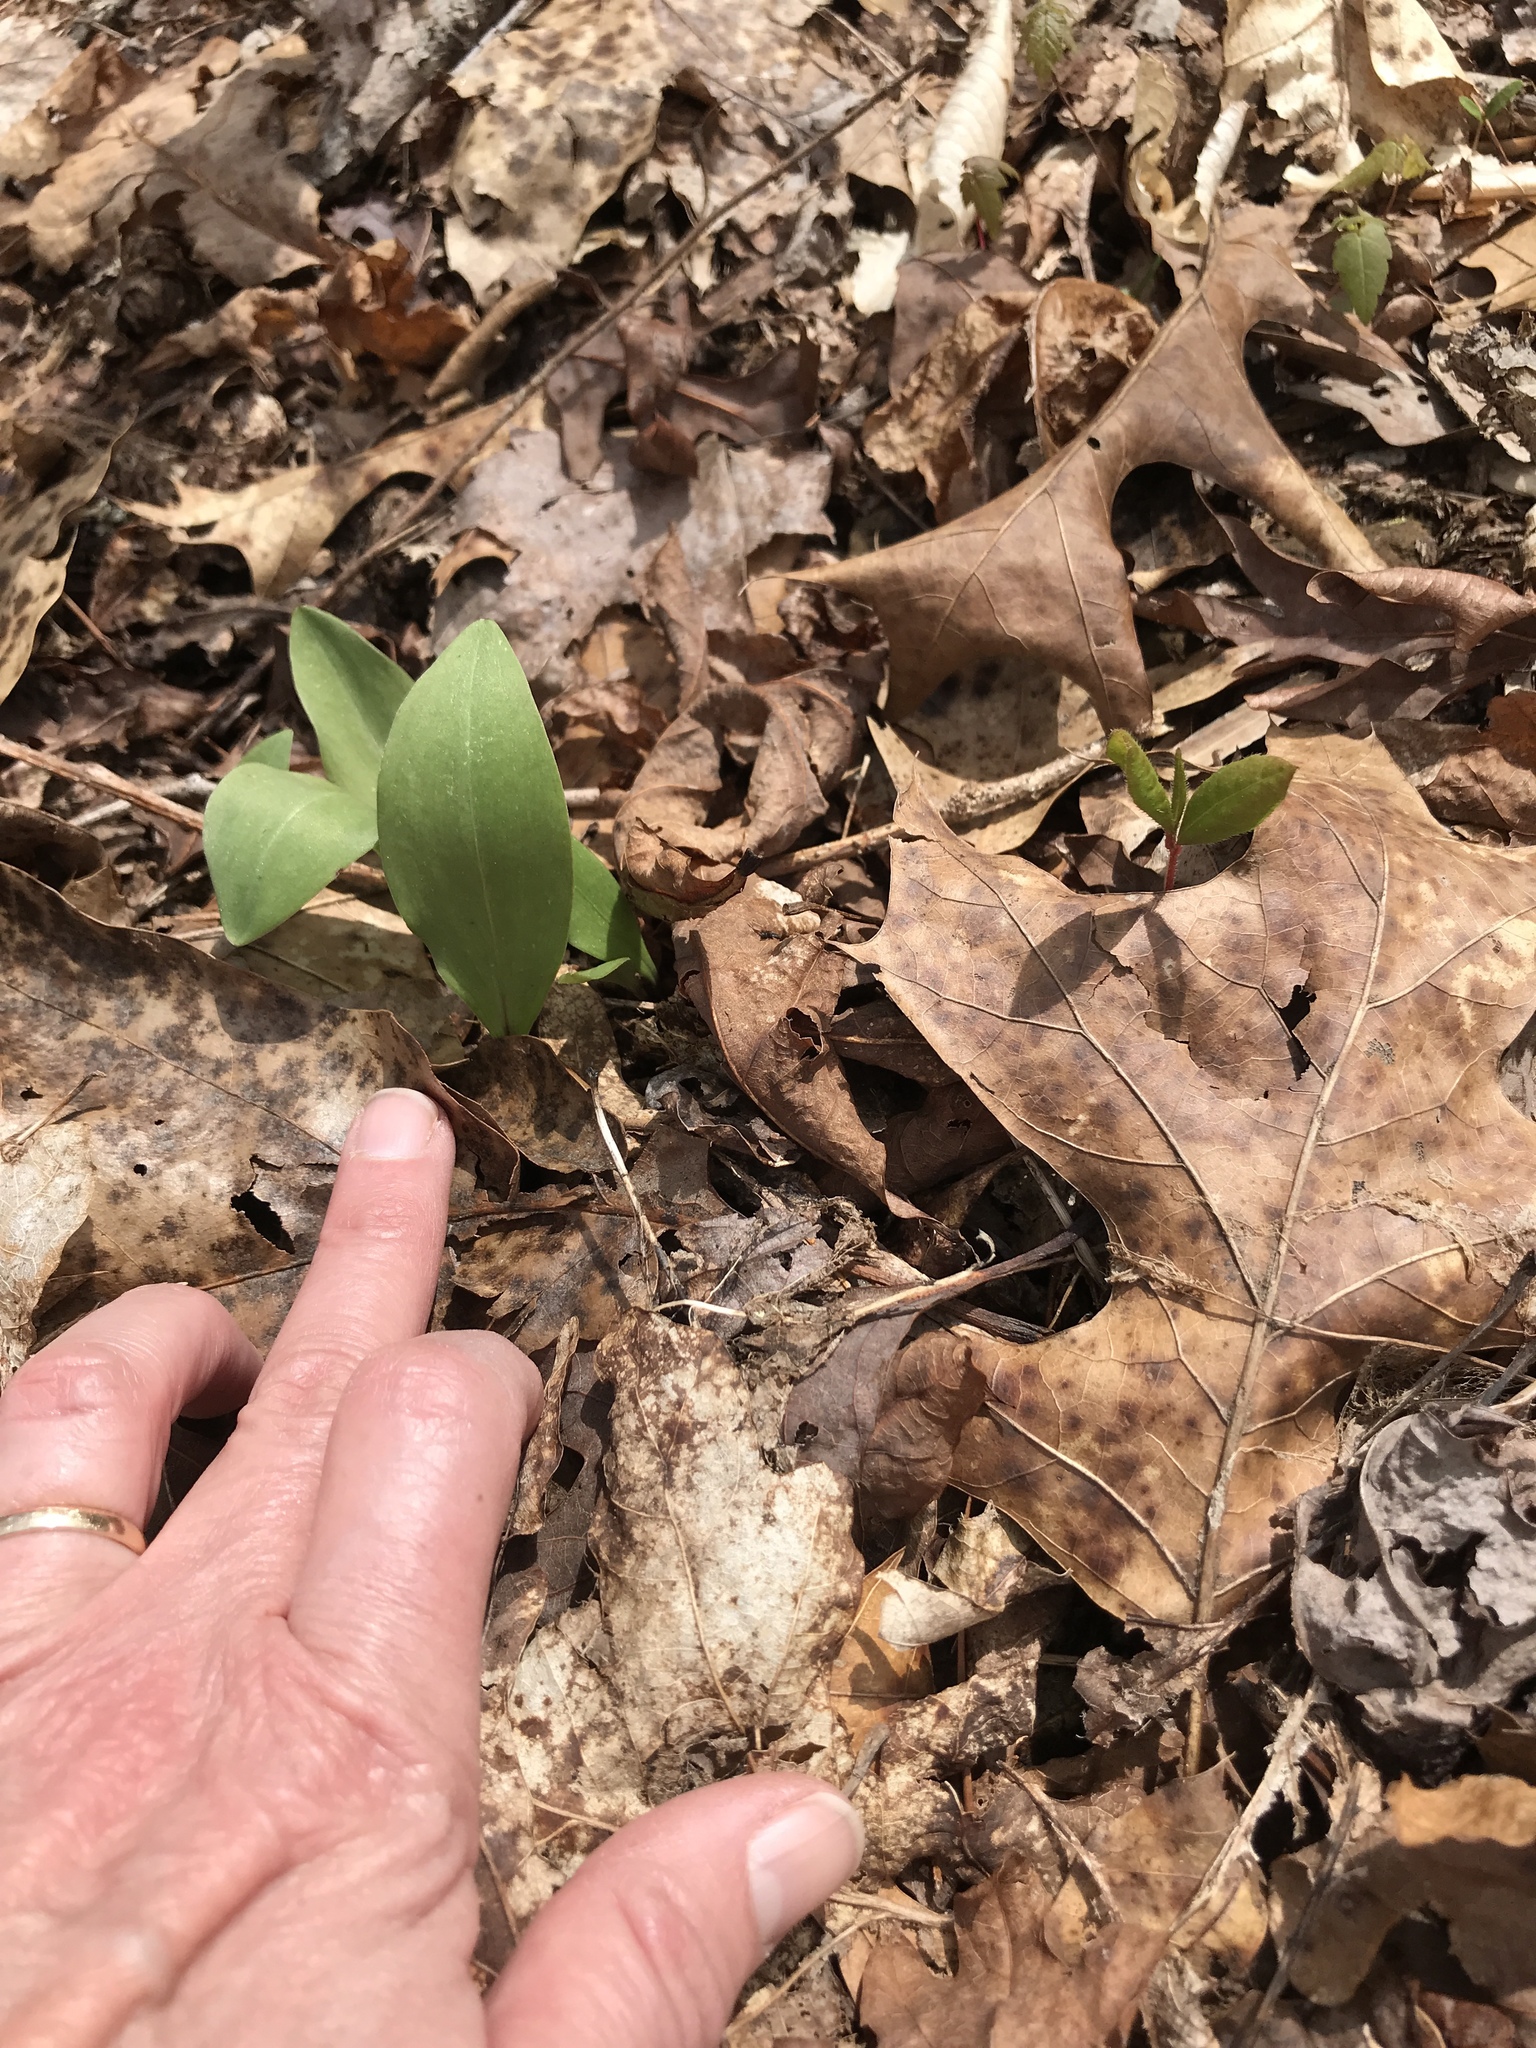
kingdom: Plantae
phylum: Tracheophyta
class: Liliopsida
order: Liliales
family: Melanthiaceae
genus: Chamaelirium
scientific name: Chamaelirium luteum
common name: Fairy-wand
